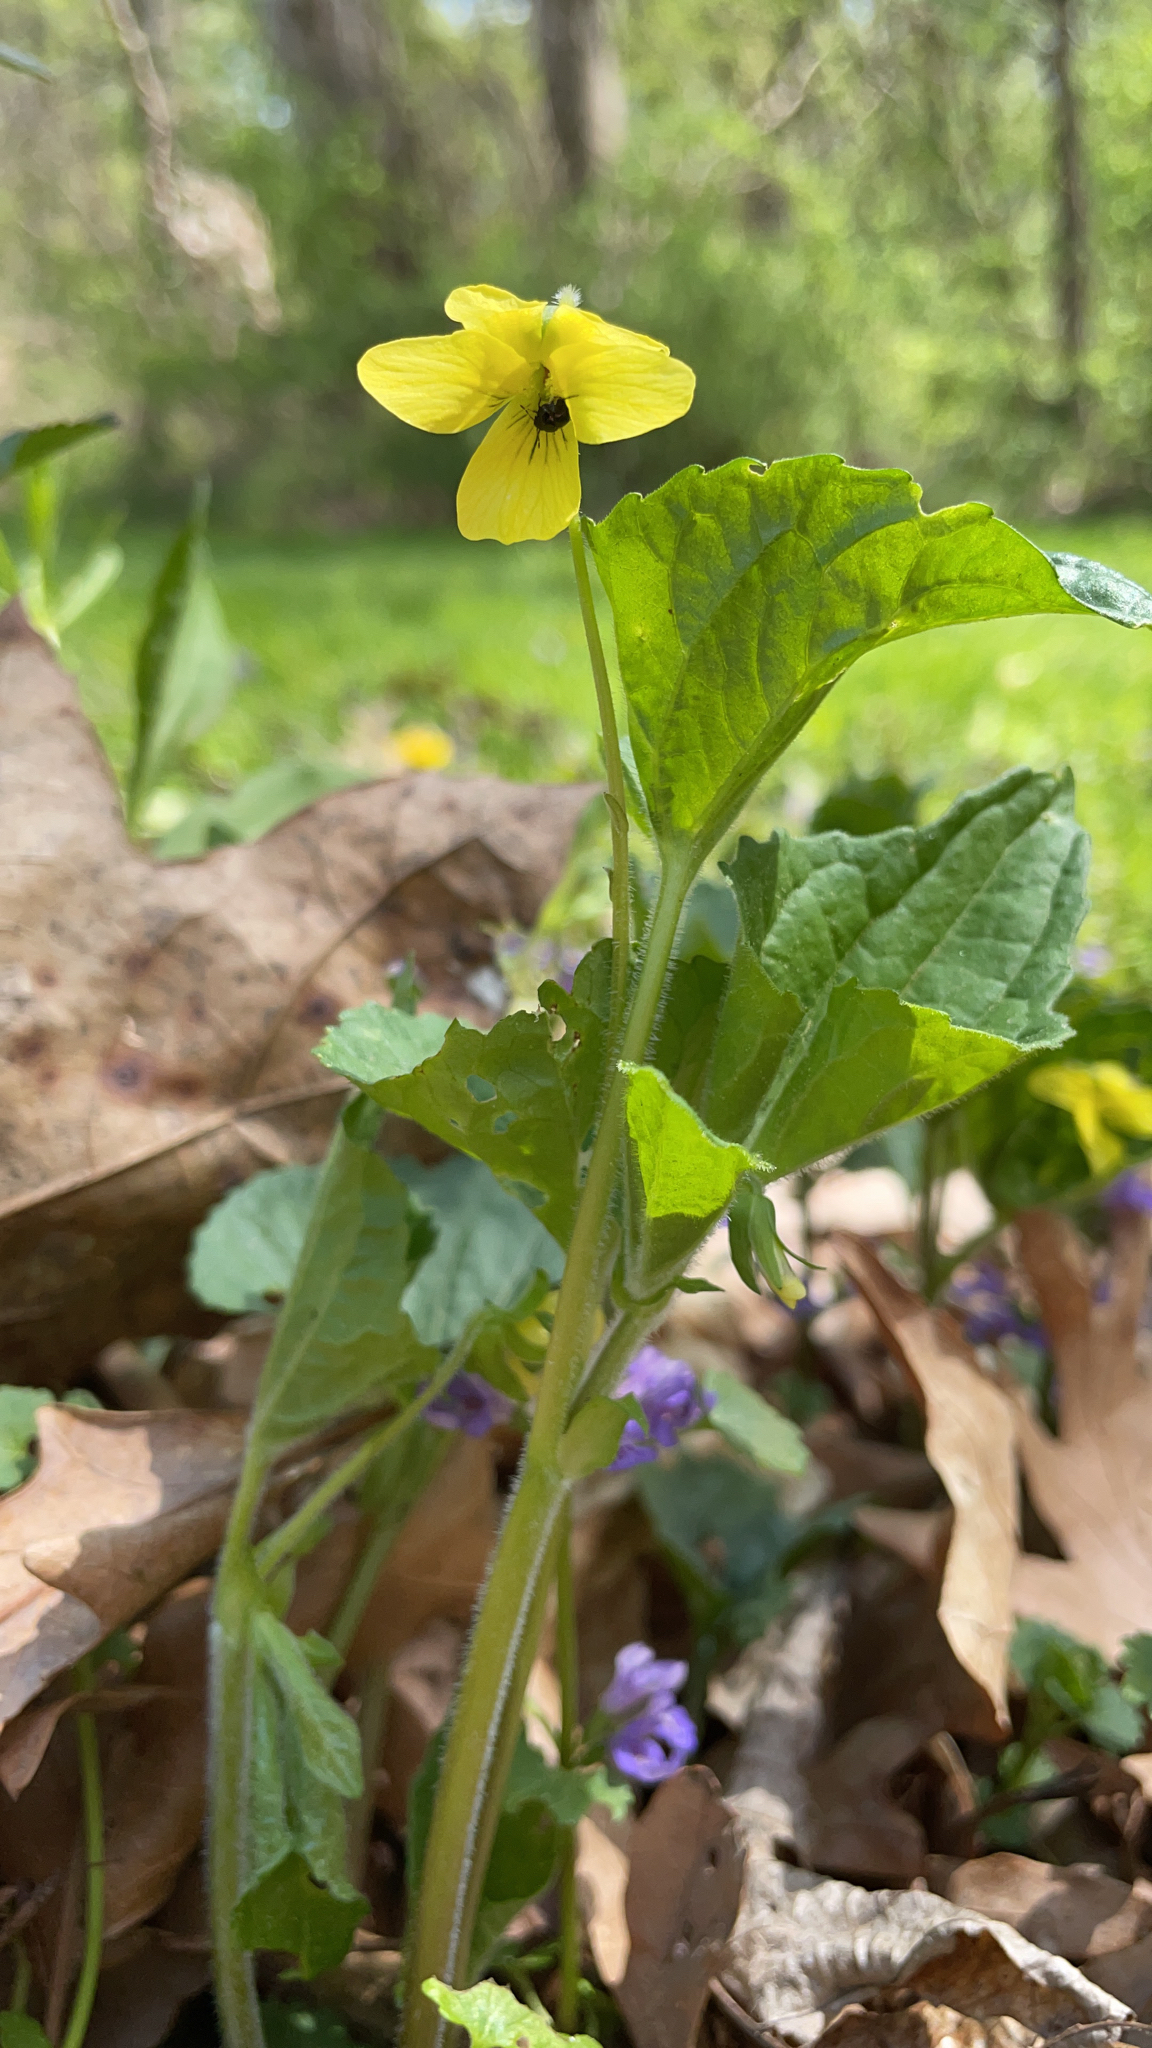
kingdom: Plantae
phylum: Tracheophyta
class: Magnoliopsida
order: Malpighiales
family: Violaceae
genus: Viola
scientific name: Viola eriocarpa
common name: Smooth yellow violet
